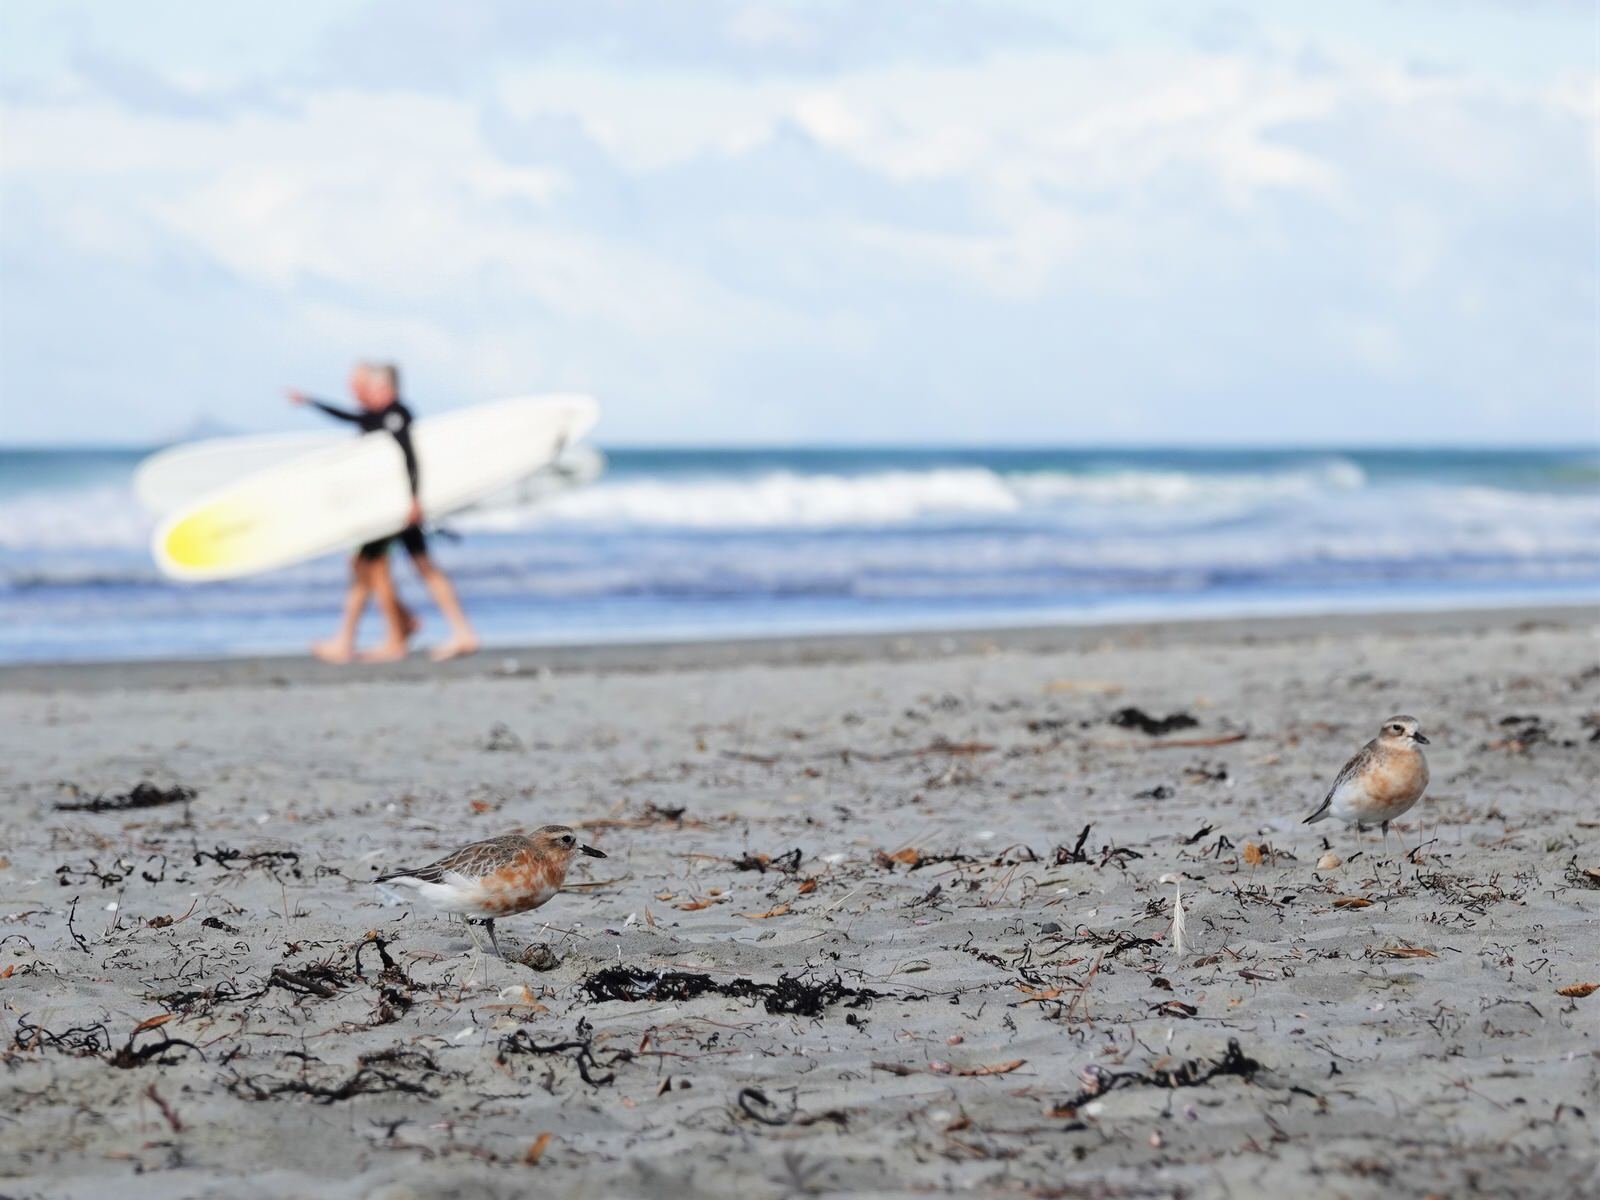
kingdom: Animalia
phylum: Chordata
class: Aves
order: Charadriiformes
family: Charadriidae
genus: Anarhynchus
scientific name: Anarhynchus
